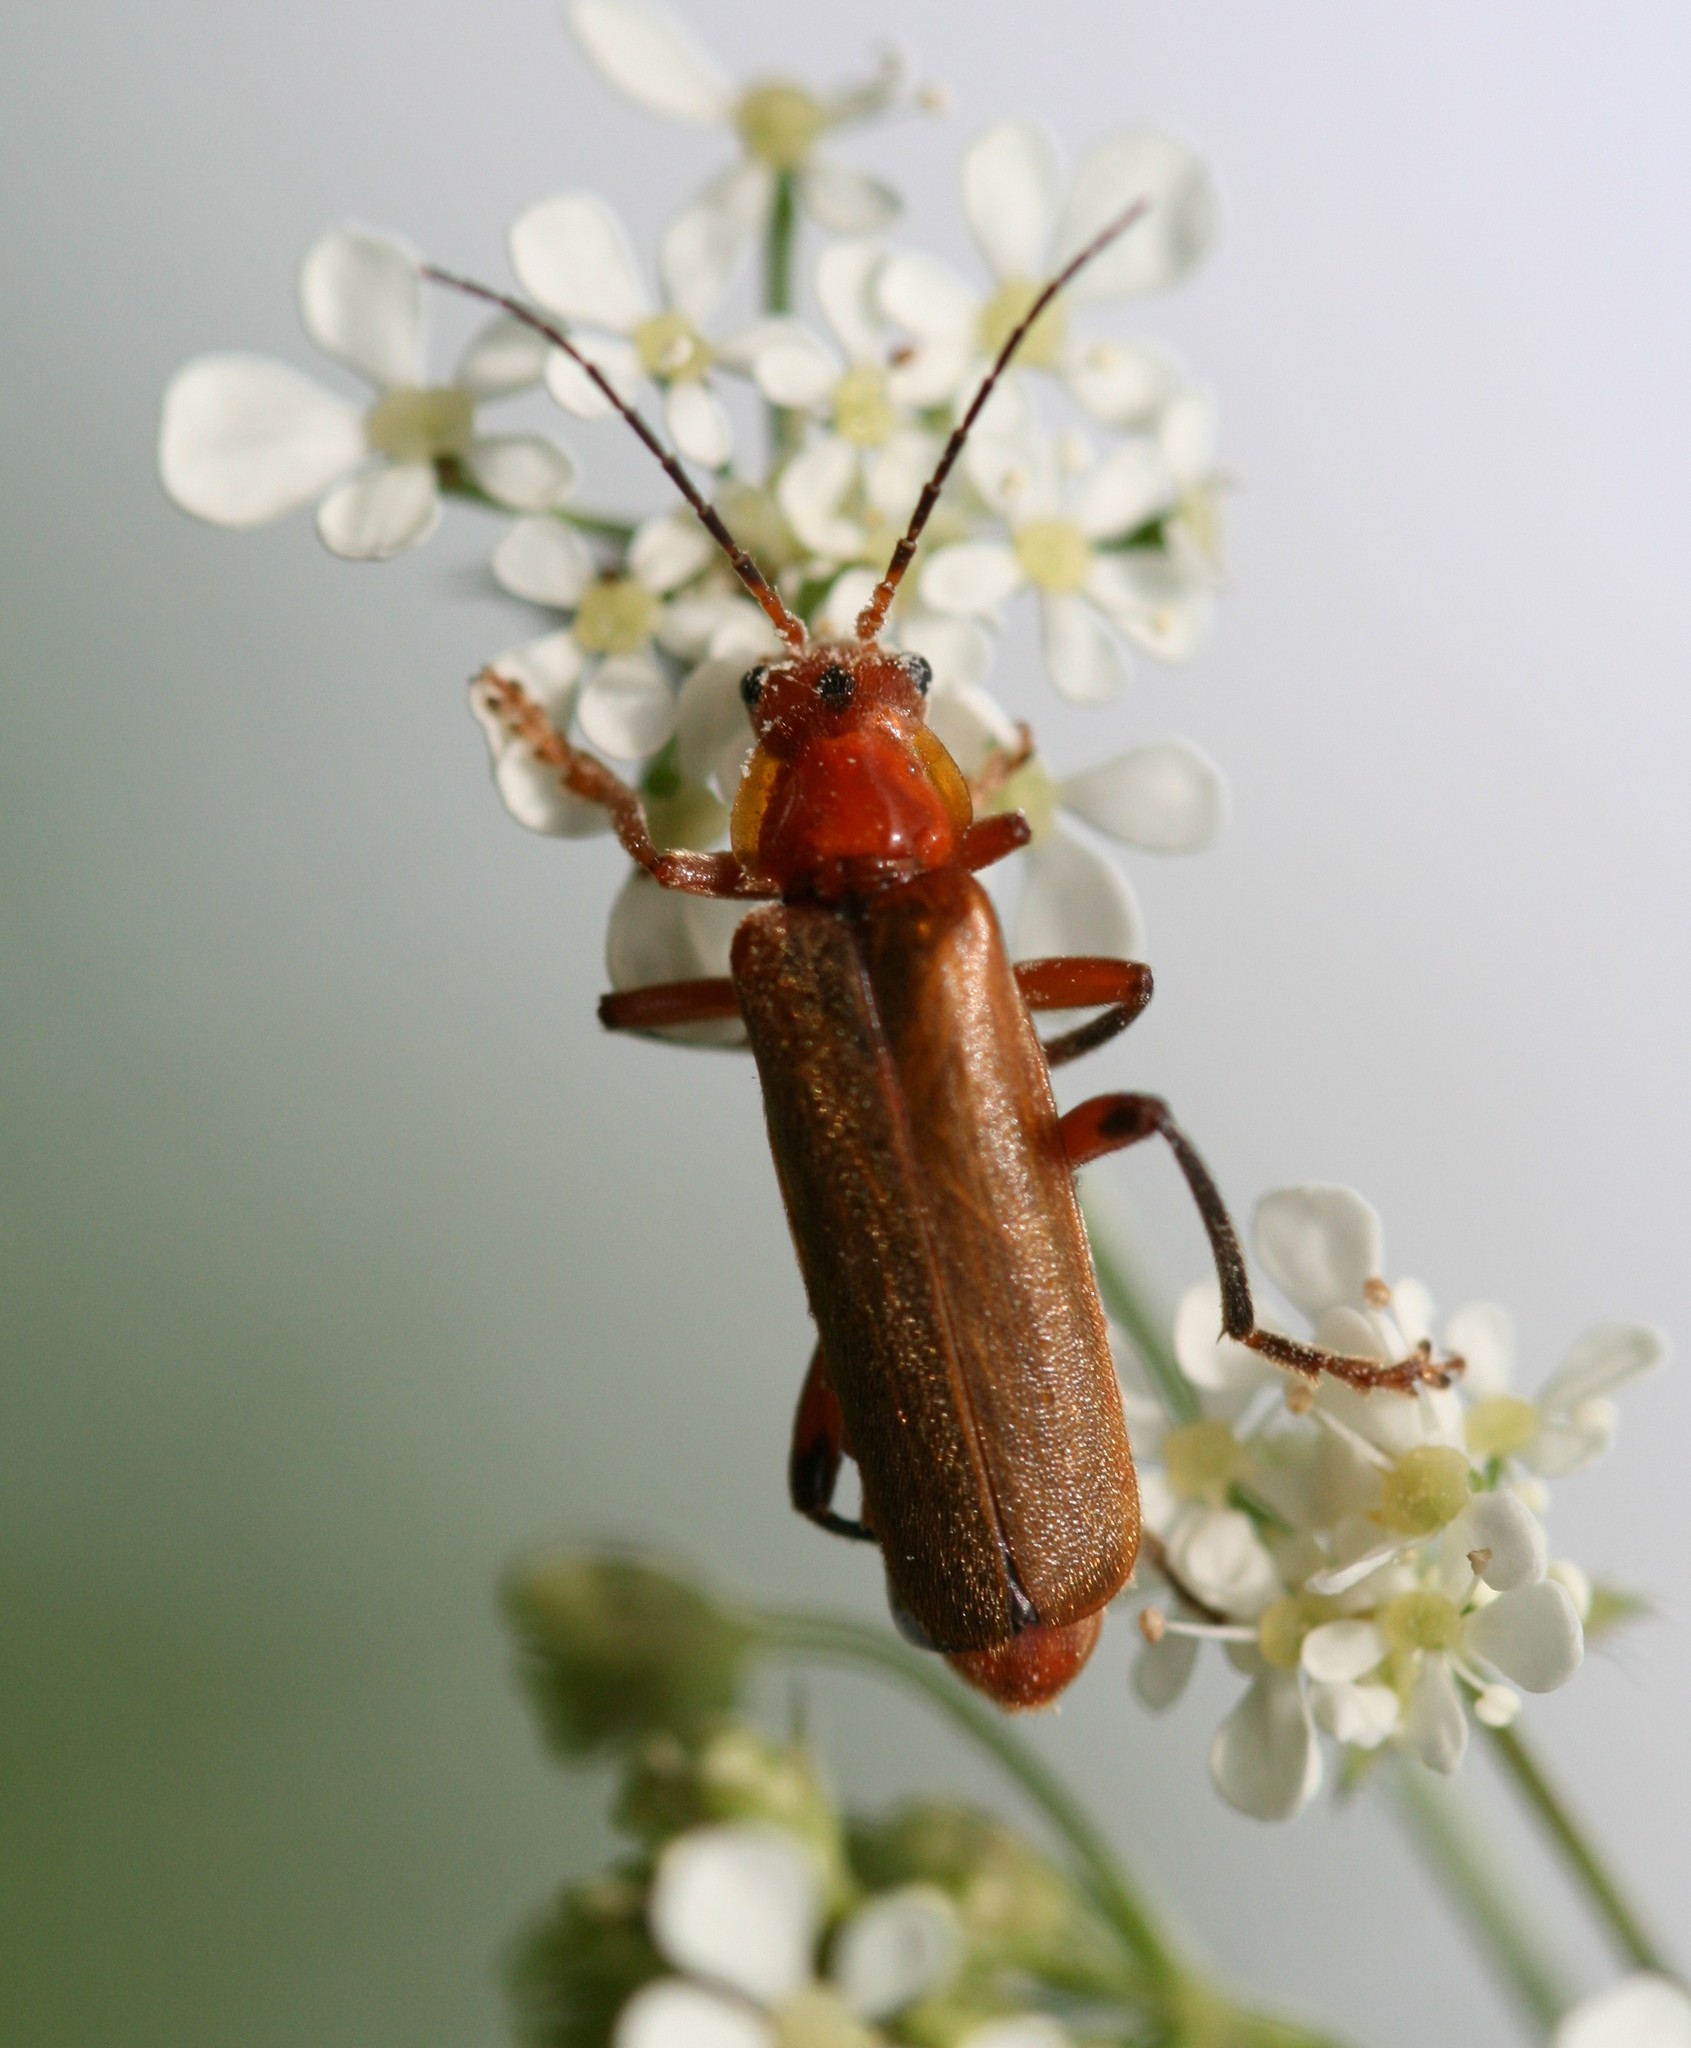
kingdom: Animalia
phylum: Arthropoda
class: Insecta
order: Coleoptera
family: Cantharidae
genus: Cantharis
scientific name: Cantharis livida
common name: Livid soldier beetle
